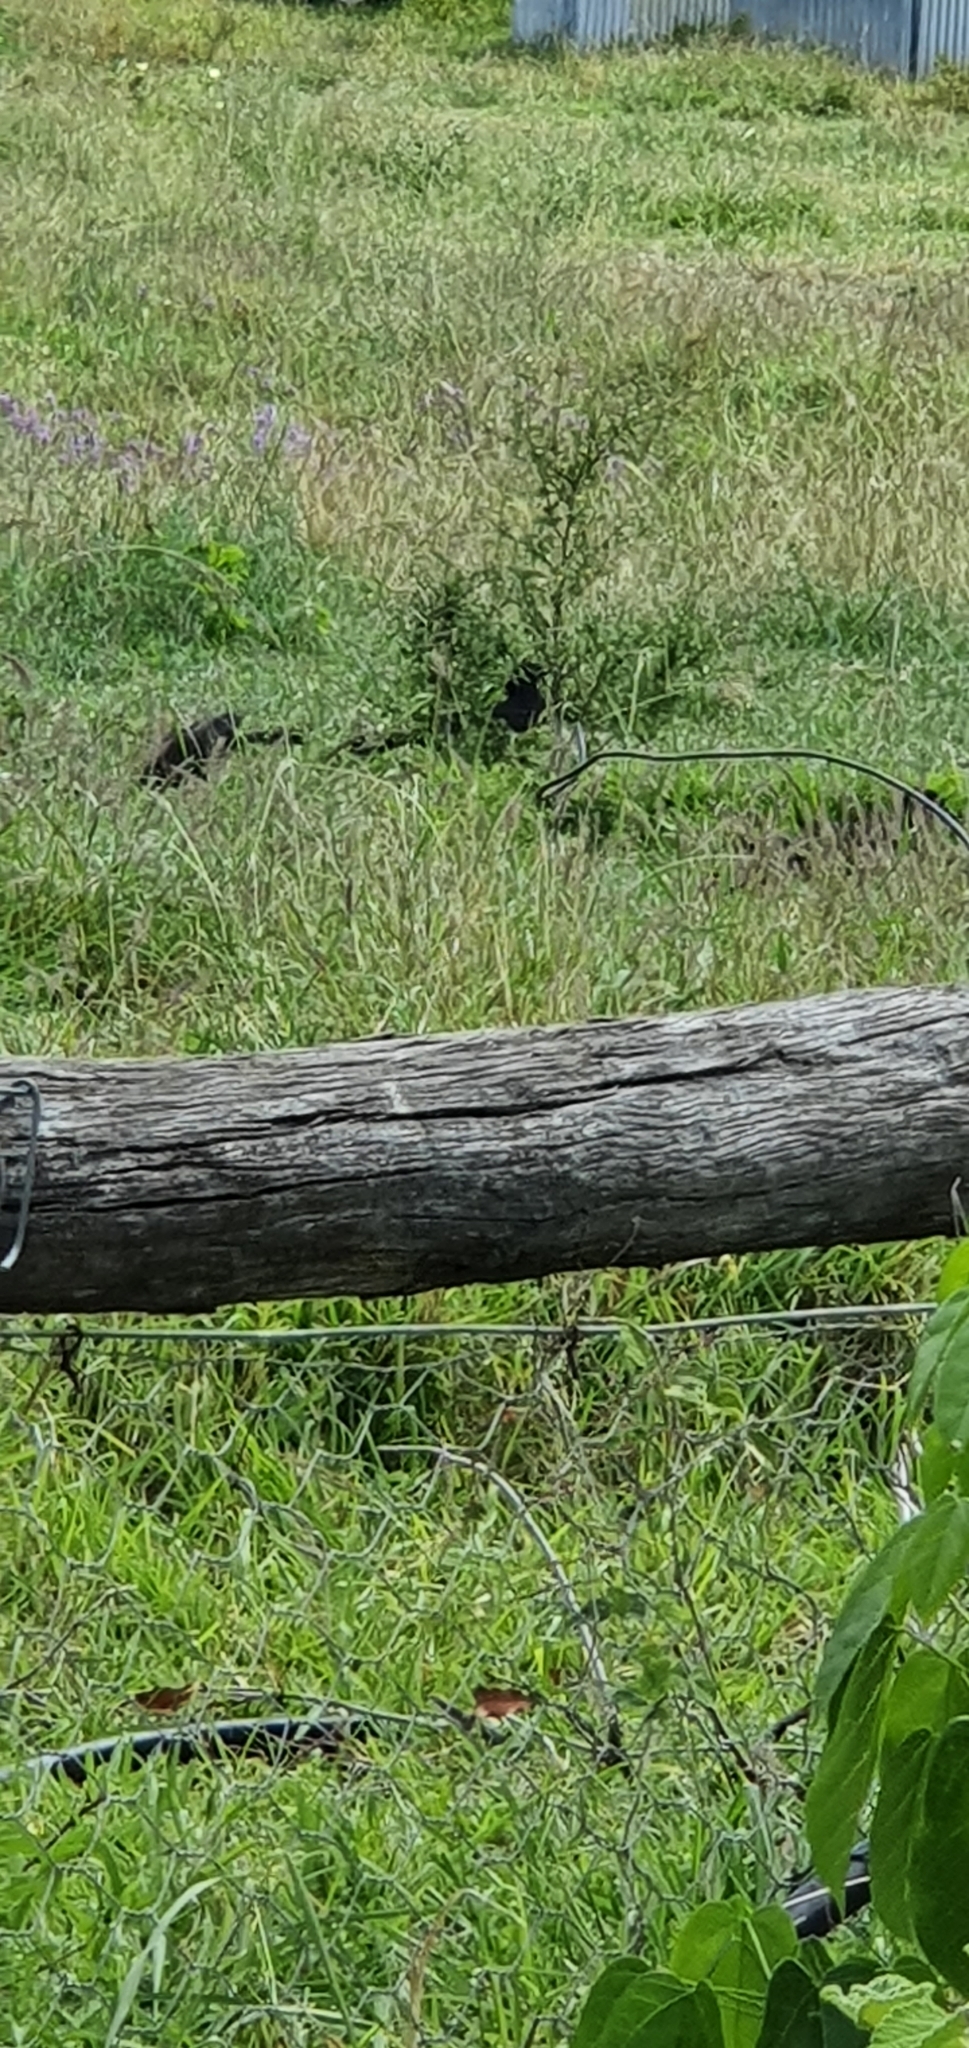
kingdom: Animalia
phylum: Chordata
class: Aves
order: Passeriformes
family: Corcoracidae
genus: Corcorax
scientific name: Corcorax melanoramphos
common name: White-winged chough
